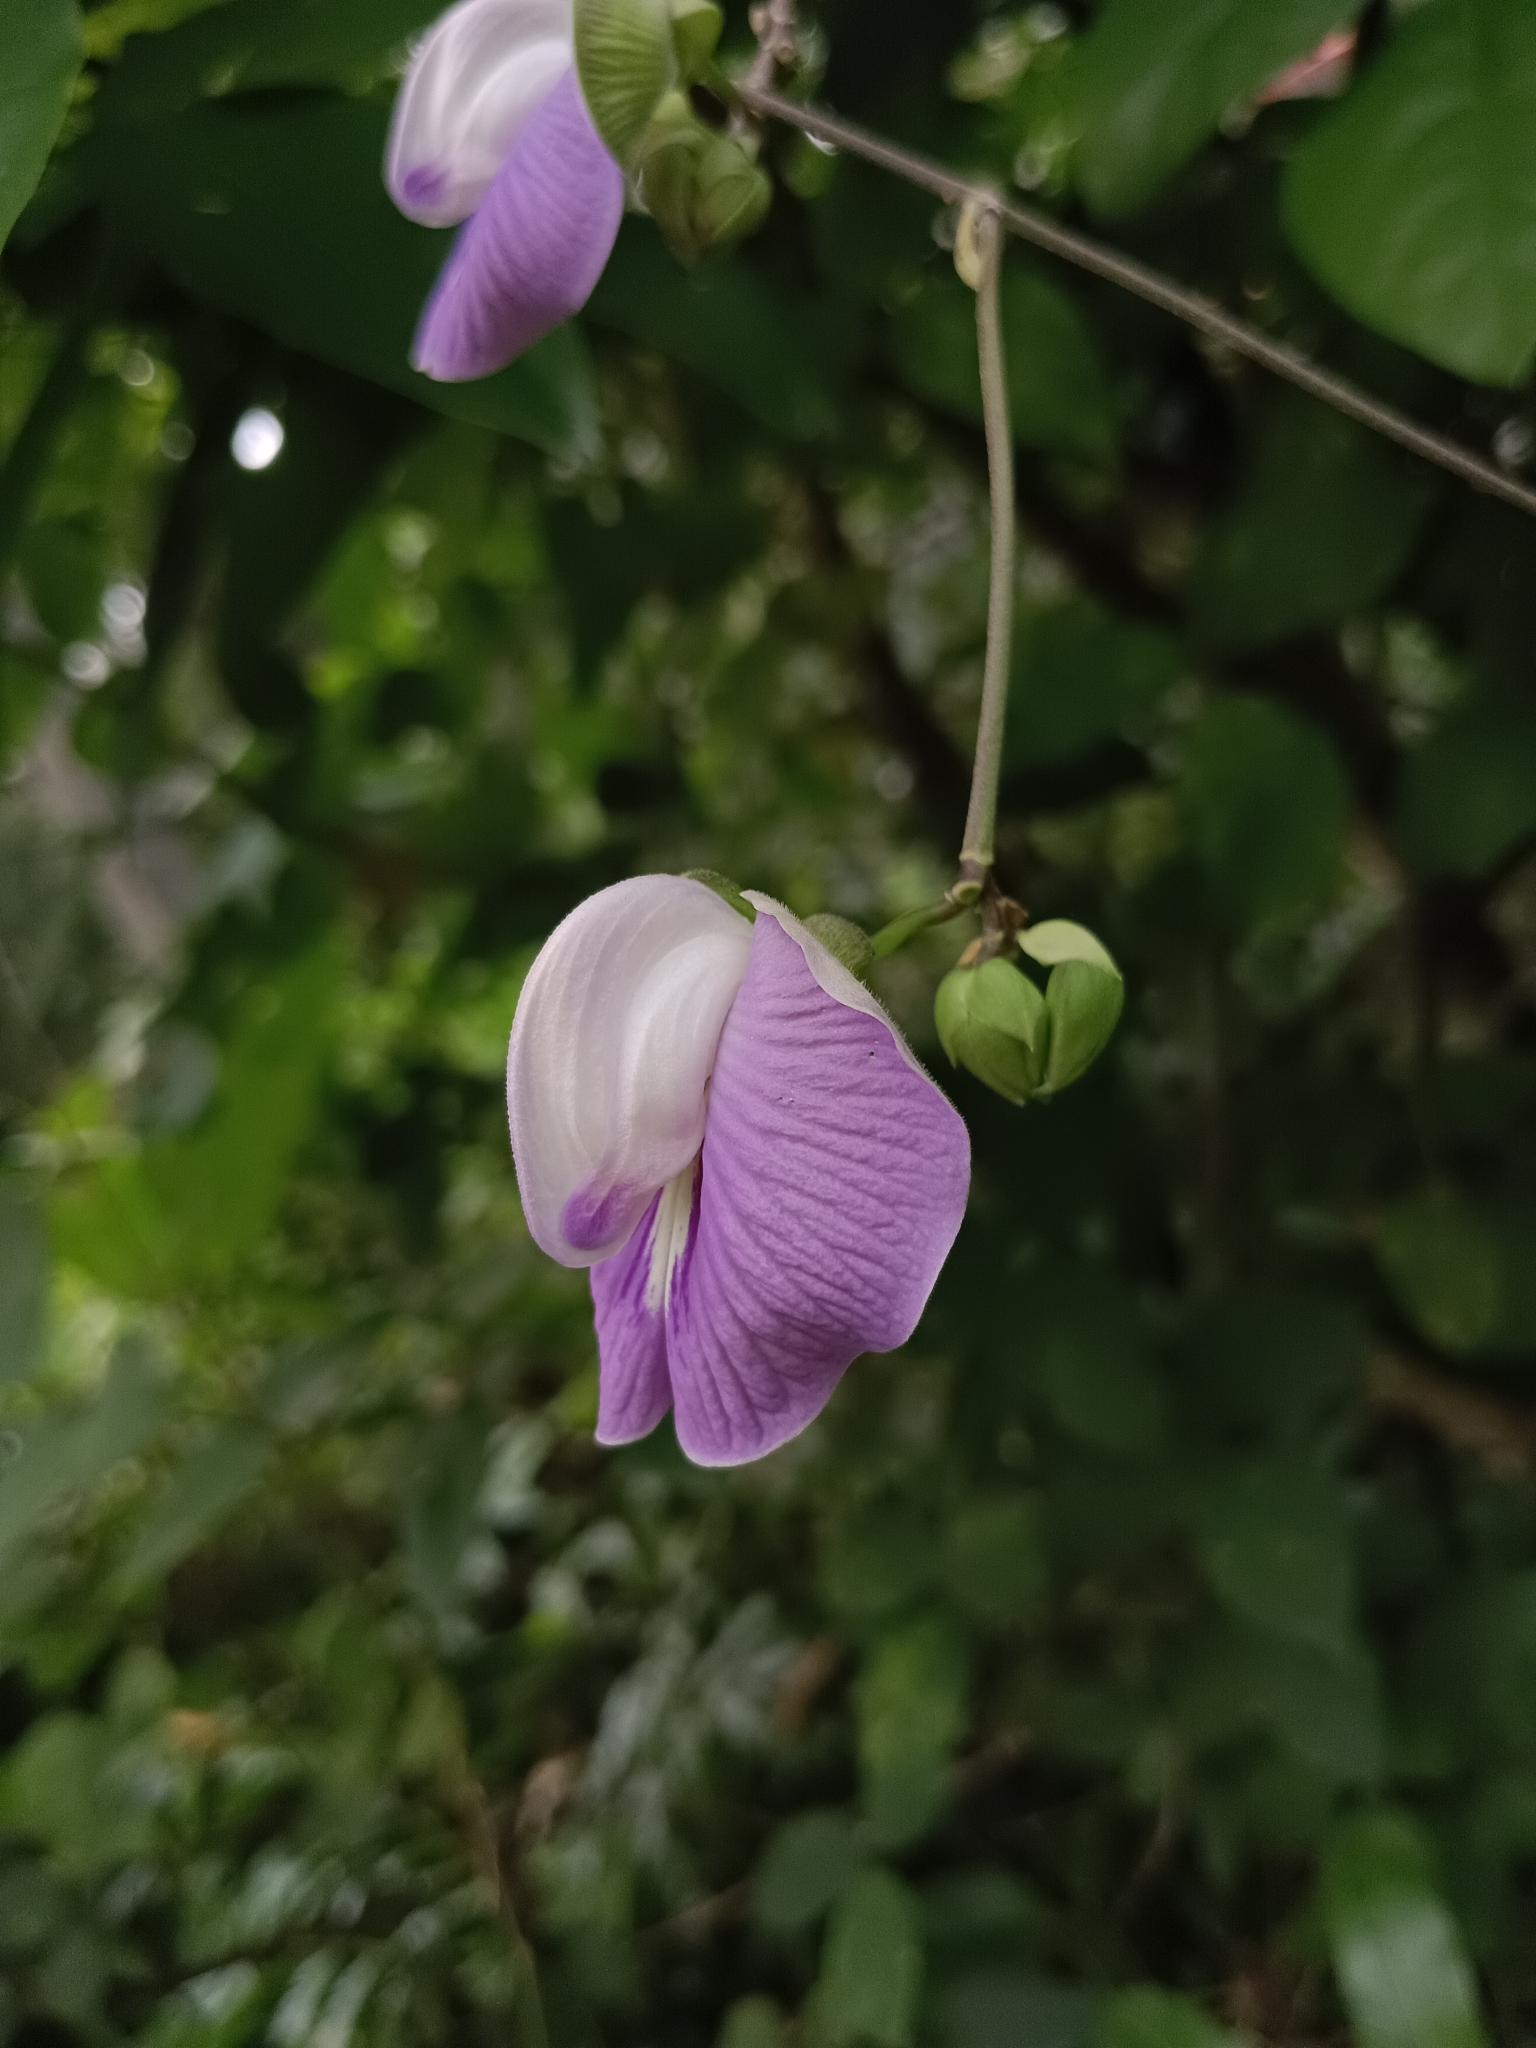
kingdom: Plantae
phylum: Tracheophyta
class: Magnoliopsida
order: Fabales
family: Fabaceae
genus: Centrosema
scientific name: Centrosema molle
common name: Soft butterfly pea
